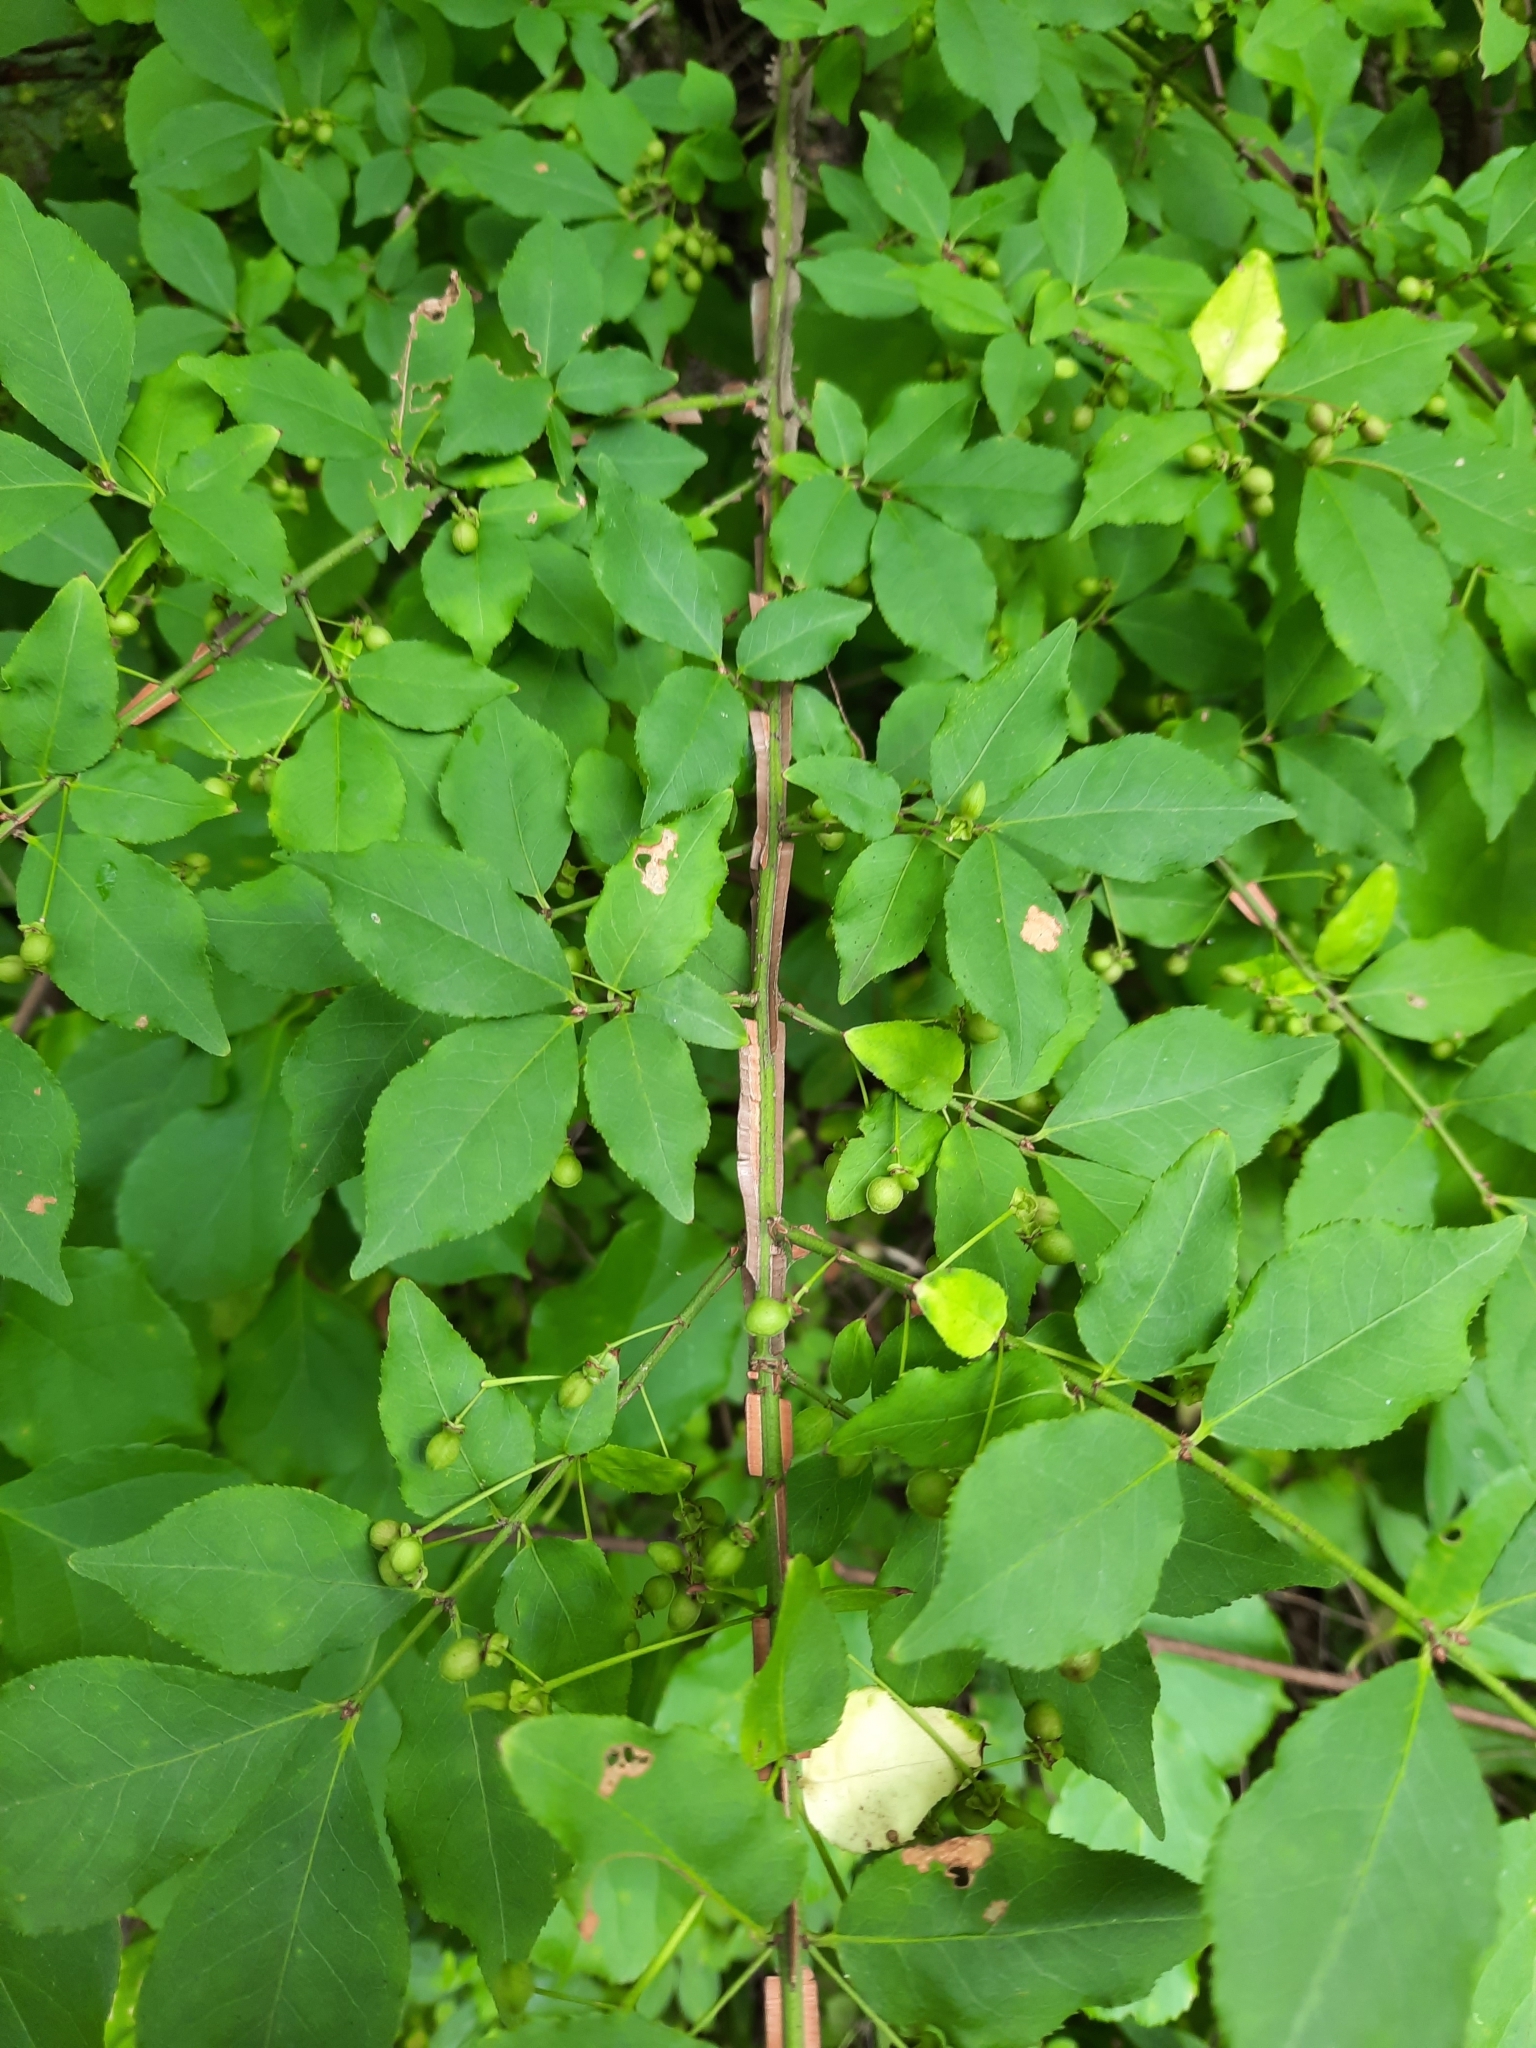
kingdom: Plantae
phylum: Tracheophyta
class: Magnoliopsida
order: Celastrales
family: Celastraceae
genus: Euonymus
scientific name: Euonymus alatus
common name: Winged euonymus
